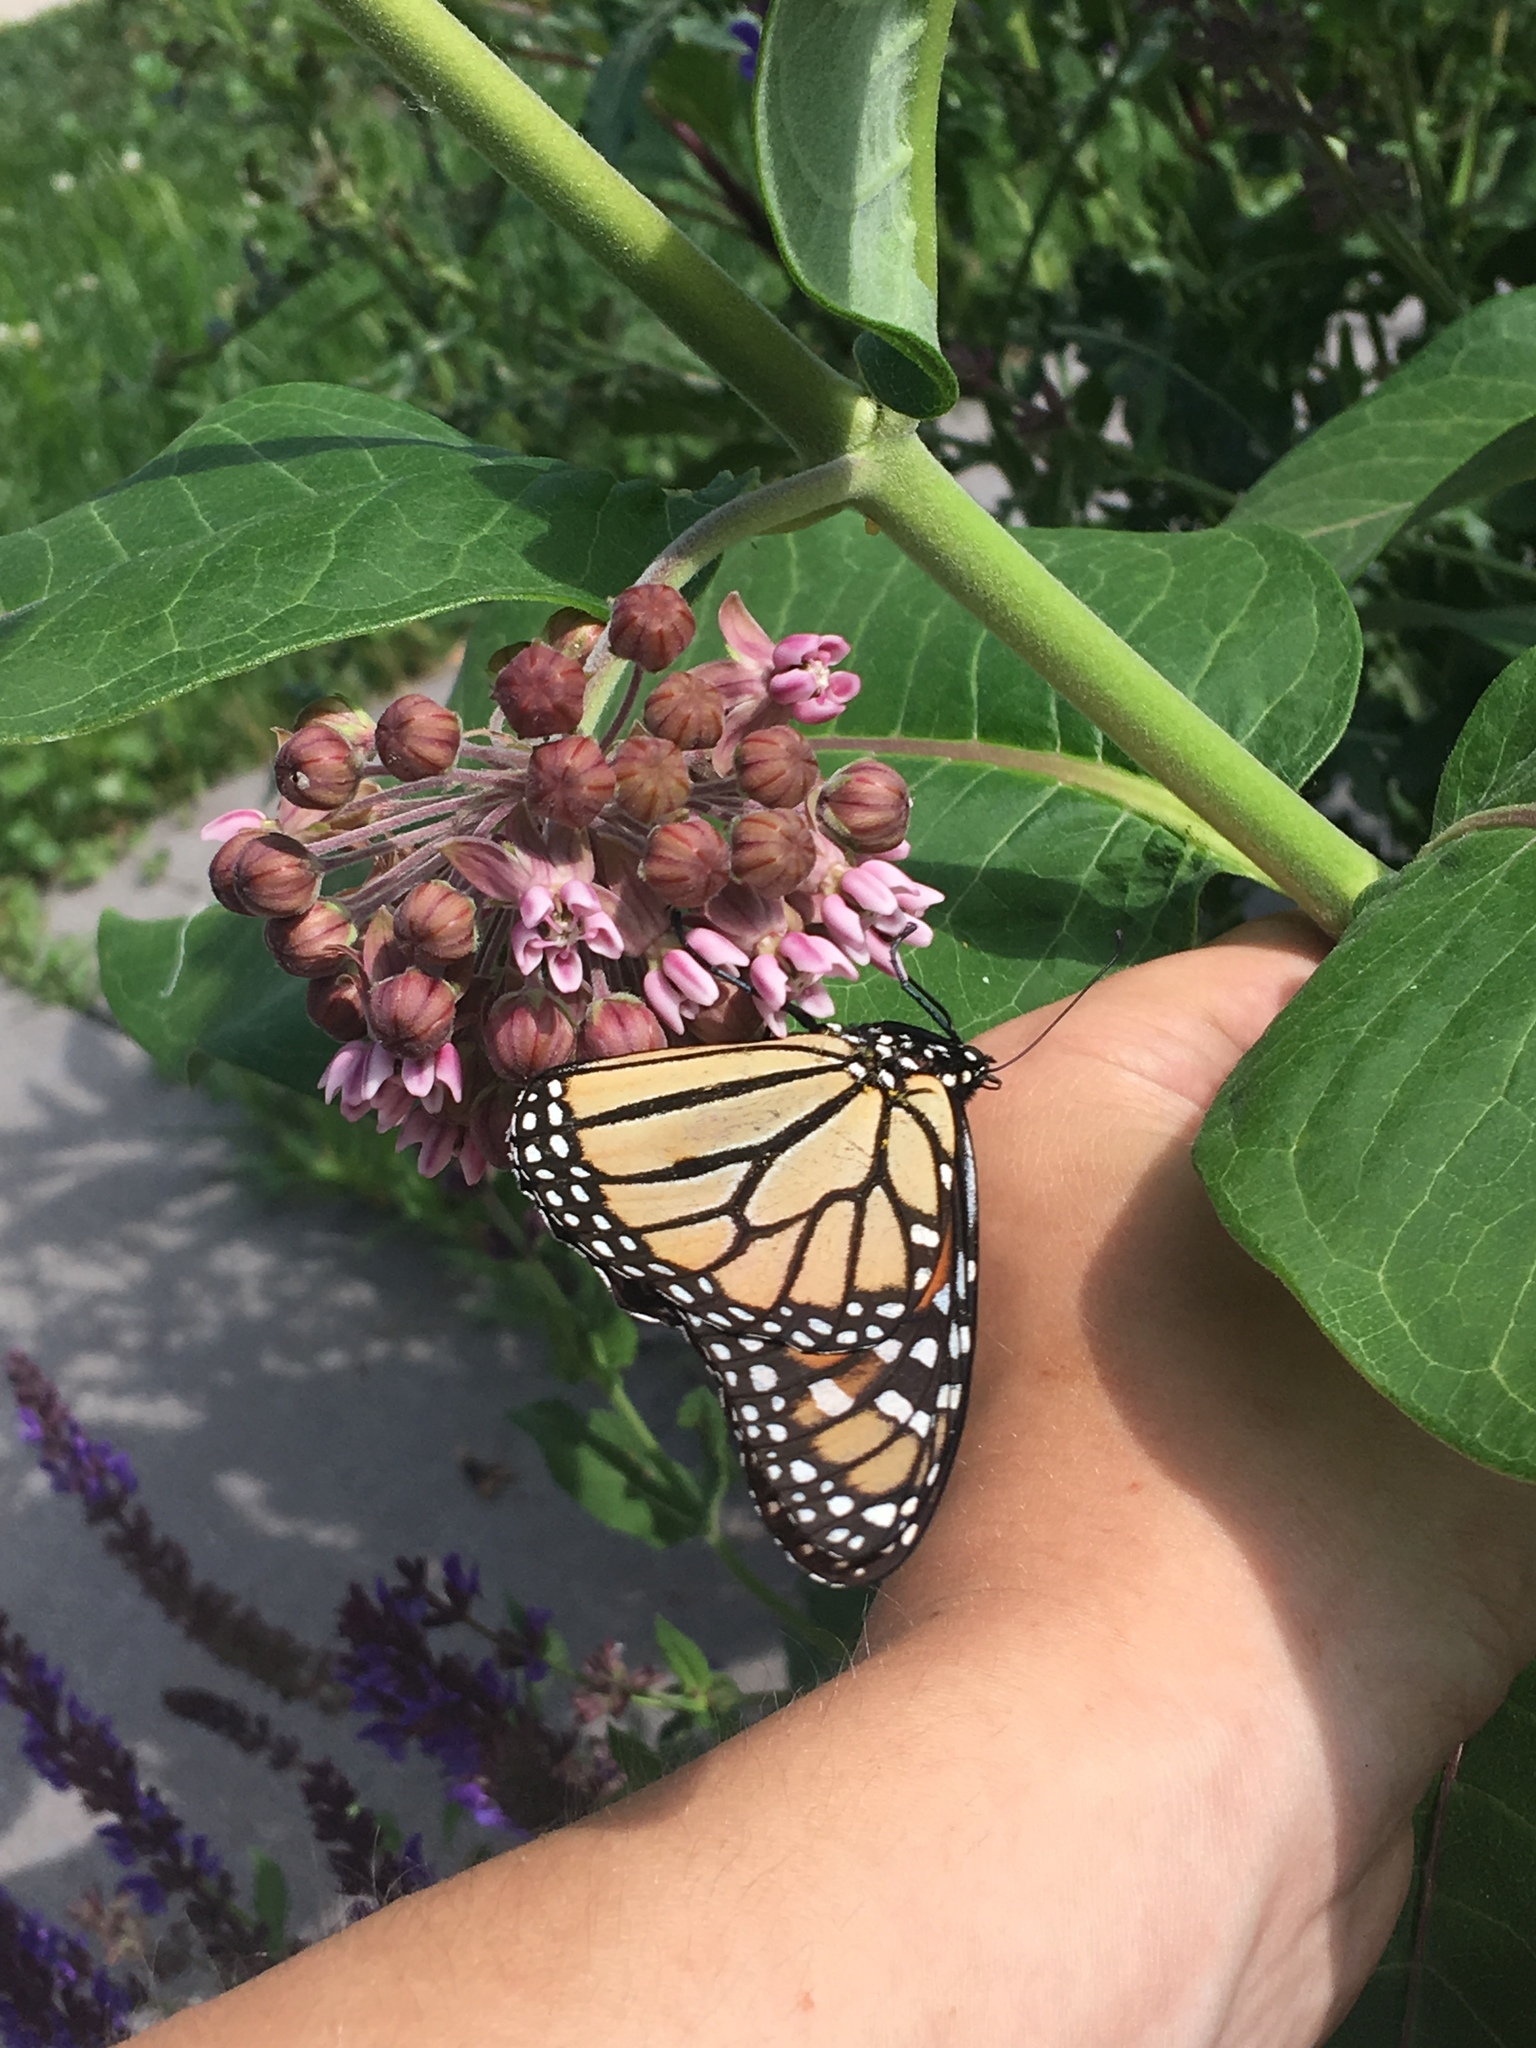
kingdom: Animalia
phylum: Arthropoda
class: Insecta
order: Lepidoptera
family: Nymphalidae
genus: Danaus
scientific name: Danaus plexippus
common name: Monarch
